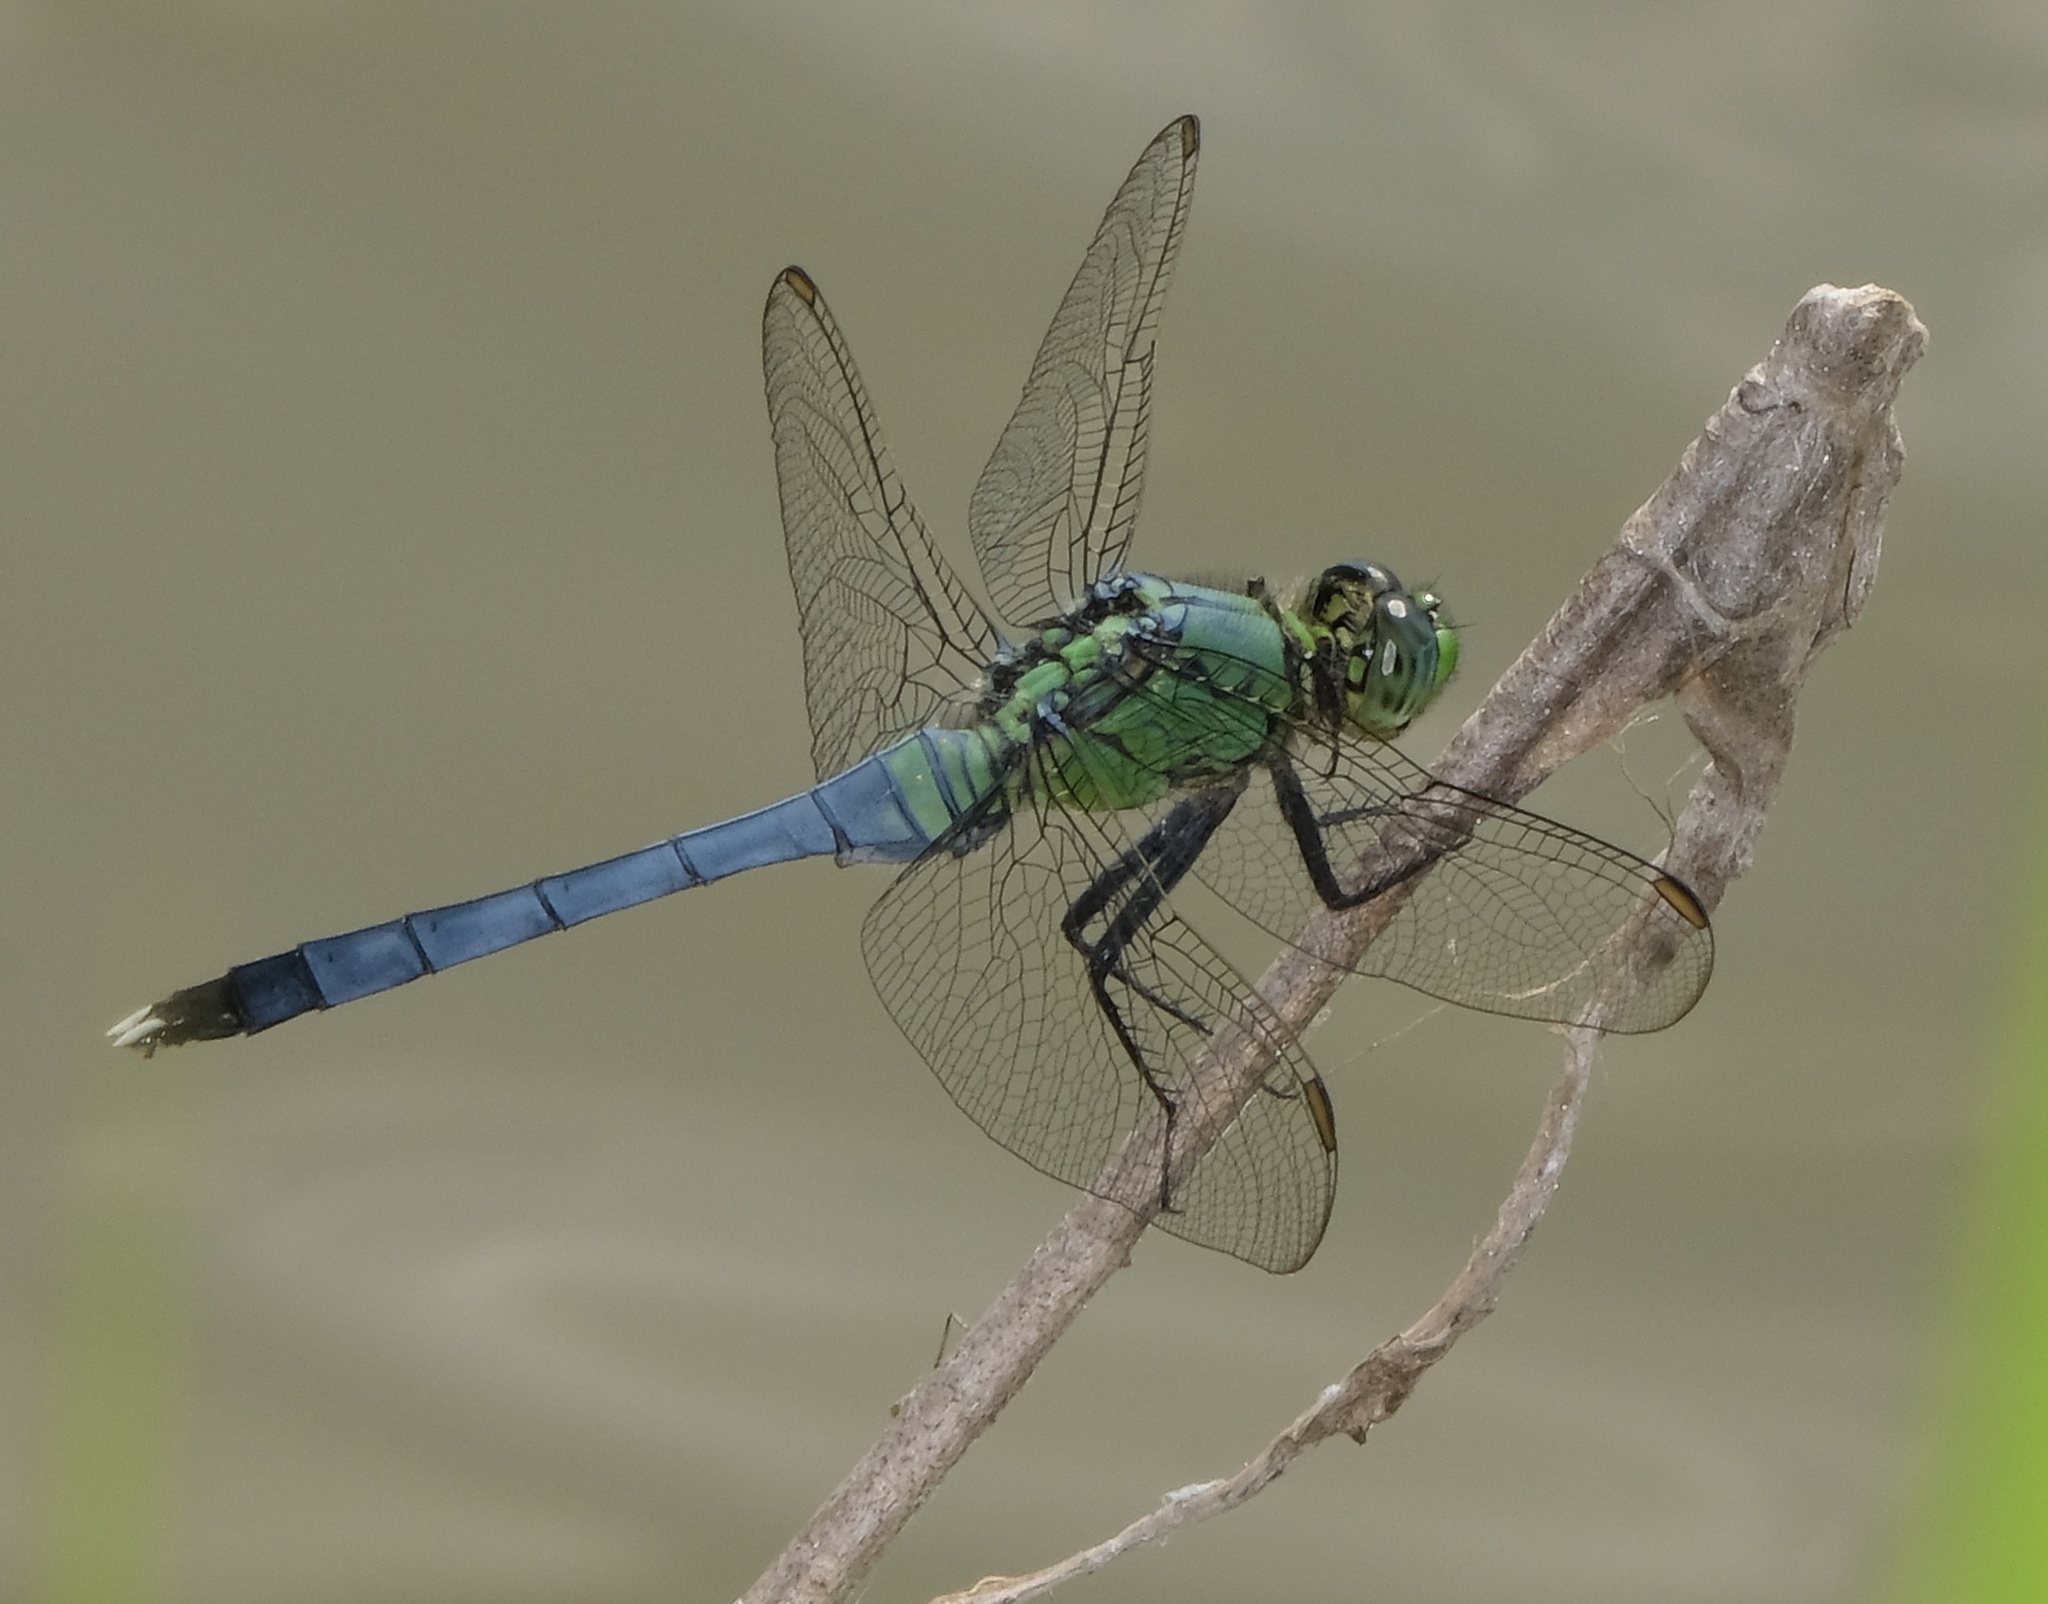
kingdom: Animalia
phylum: Arthropoda
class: Insecta
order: Odonata
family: Libellulidae
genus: Erythemis
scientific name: Erythemis simplicicollis
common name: Eastern pondhawk
